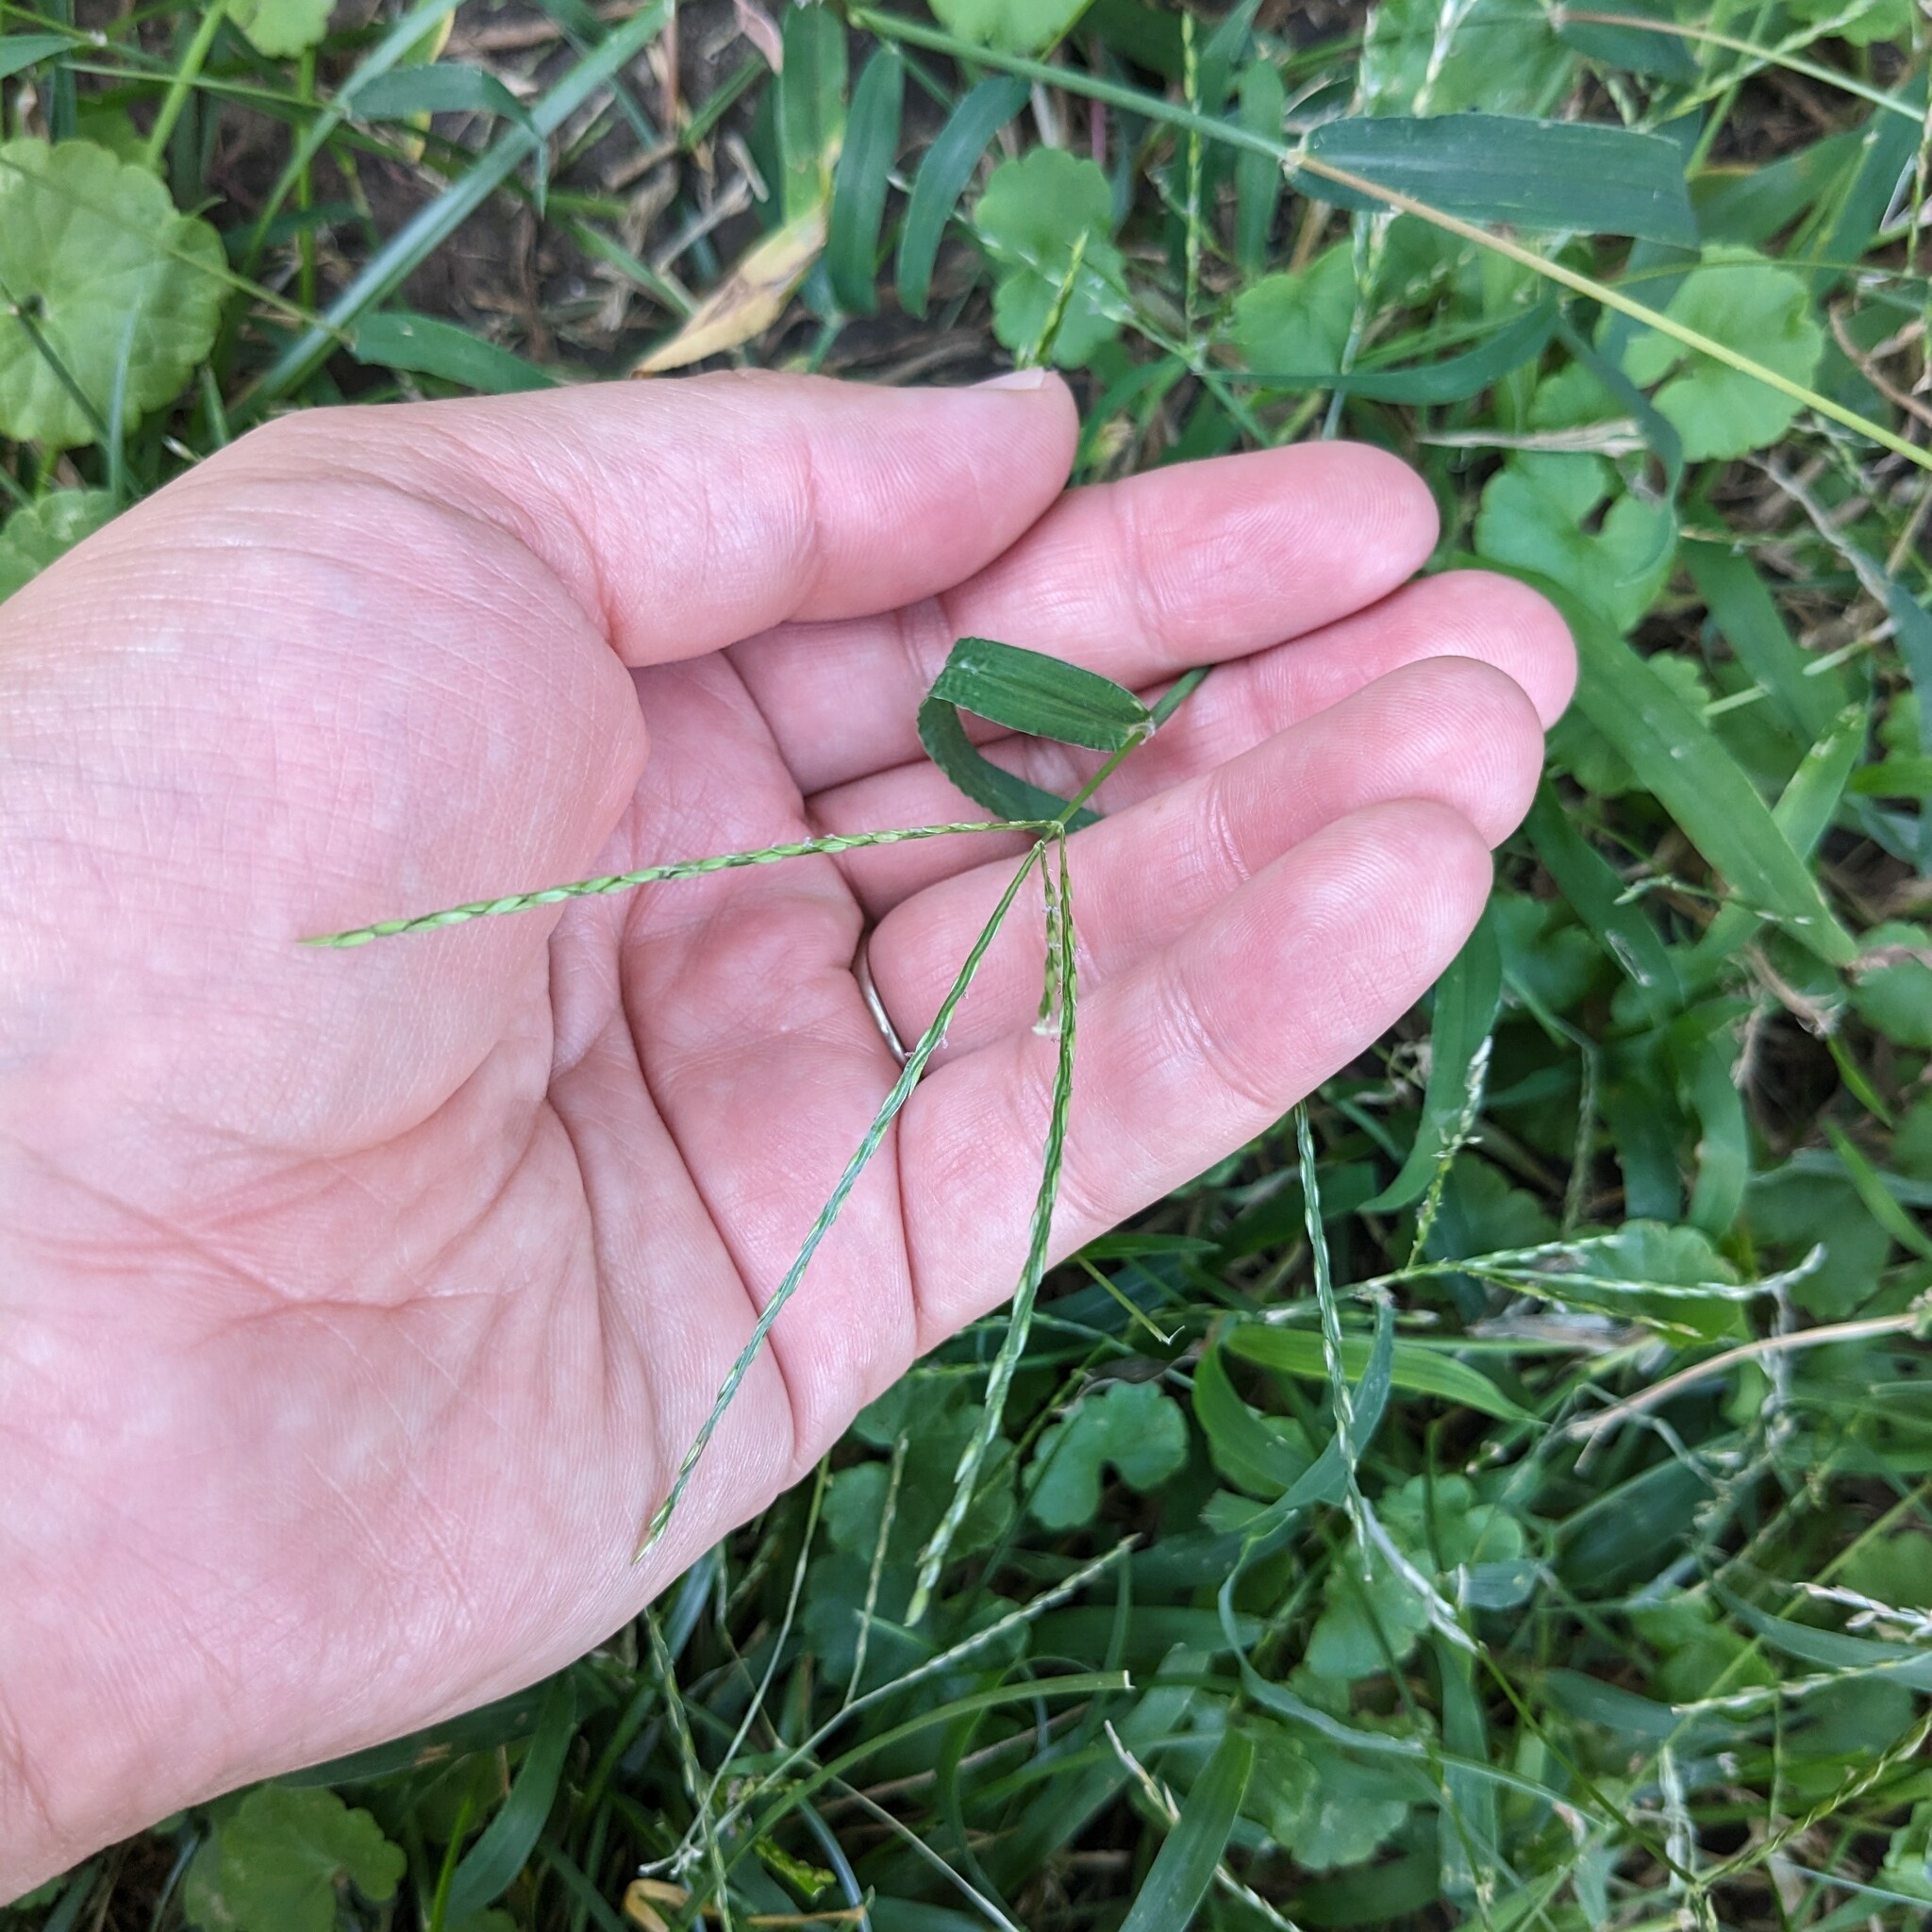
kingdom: Plantae
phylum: Tracheophyta
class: Liliopsida
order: Poales
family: Poaceae
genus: Digitaria
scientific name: Digitaria sanguinalis
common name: Hairy crabgrass
